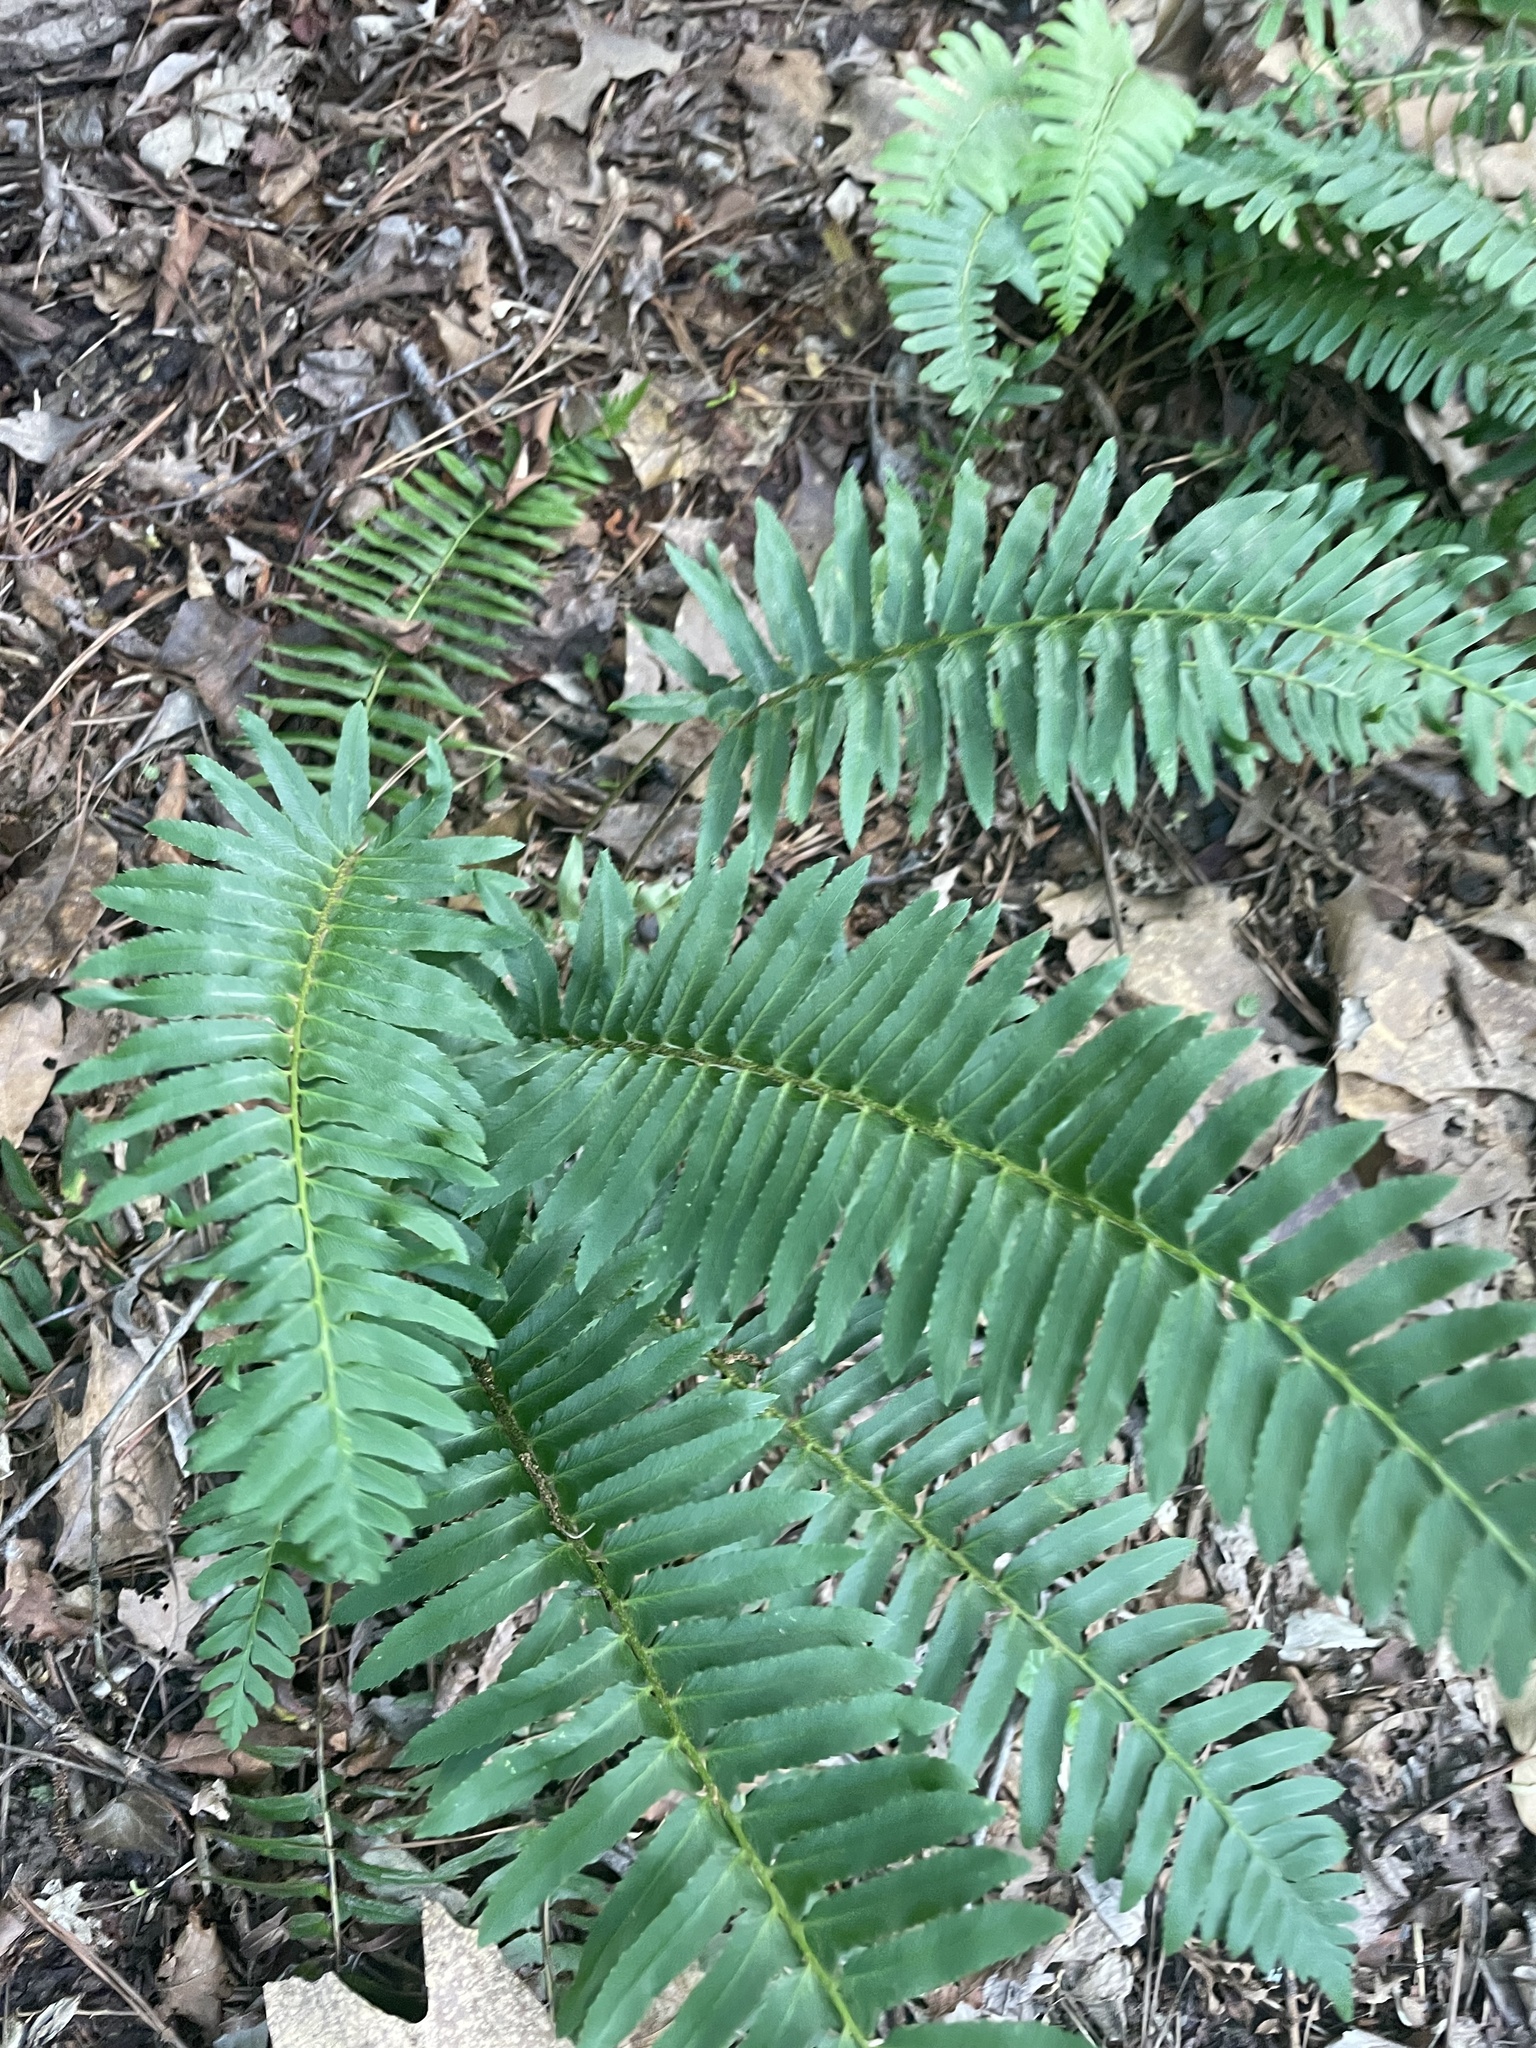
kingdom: Plantae
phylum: Tracheophyta
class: Polypodiopsida
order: Polypodiales
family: Dryopteridaceae
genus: Polystichum
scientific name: Polystichum acrostichoides
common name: Christmas fern
